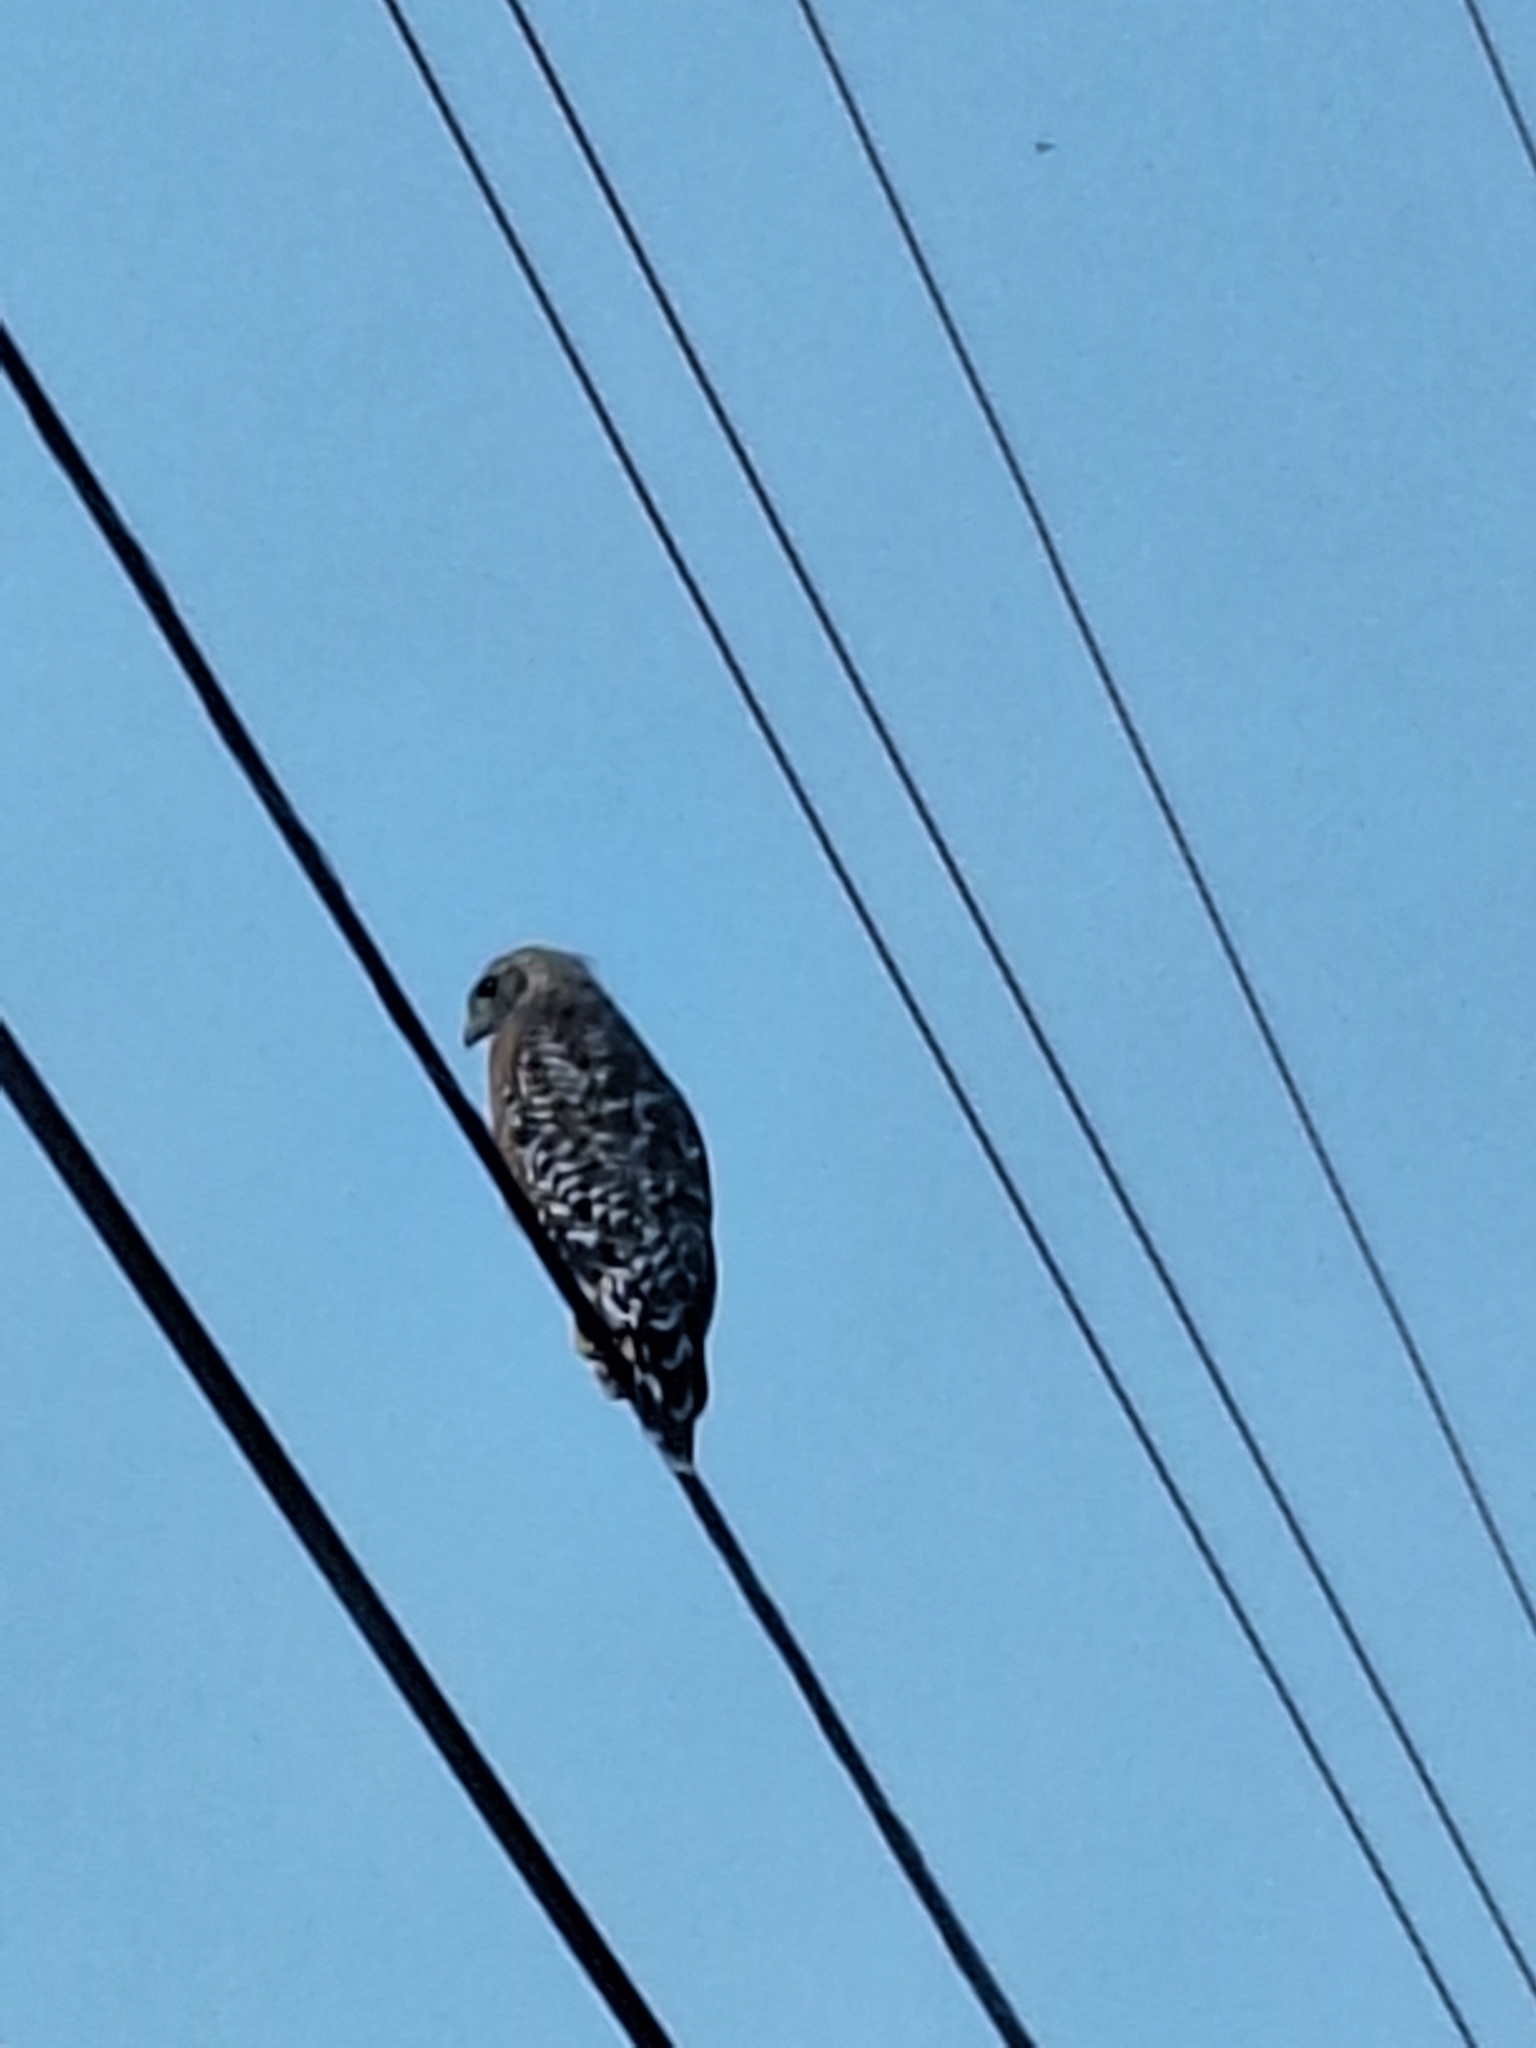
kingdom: Animalia
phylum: Chordata
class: Aves
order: Accipitriformes
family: Accipitridae
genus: Buteo
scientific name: Buteo lineatus
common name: Red-shouldered hawk
